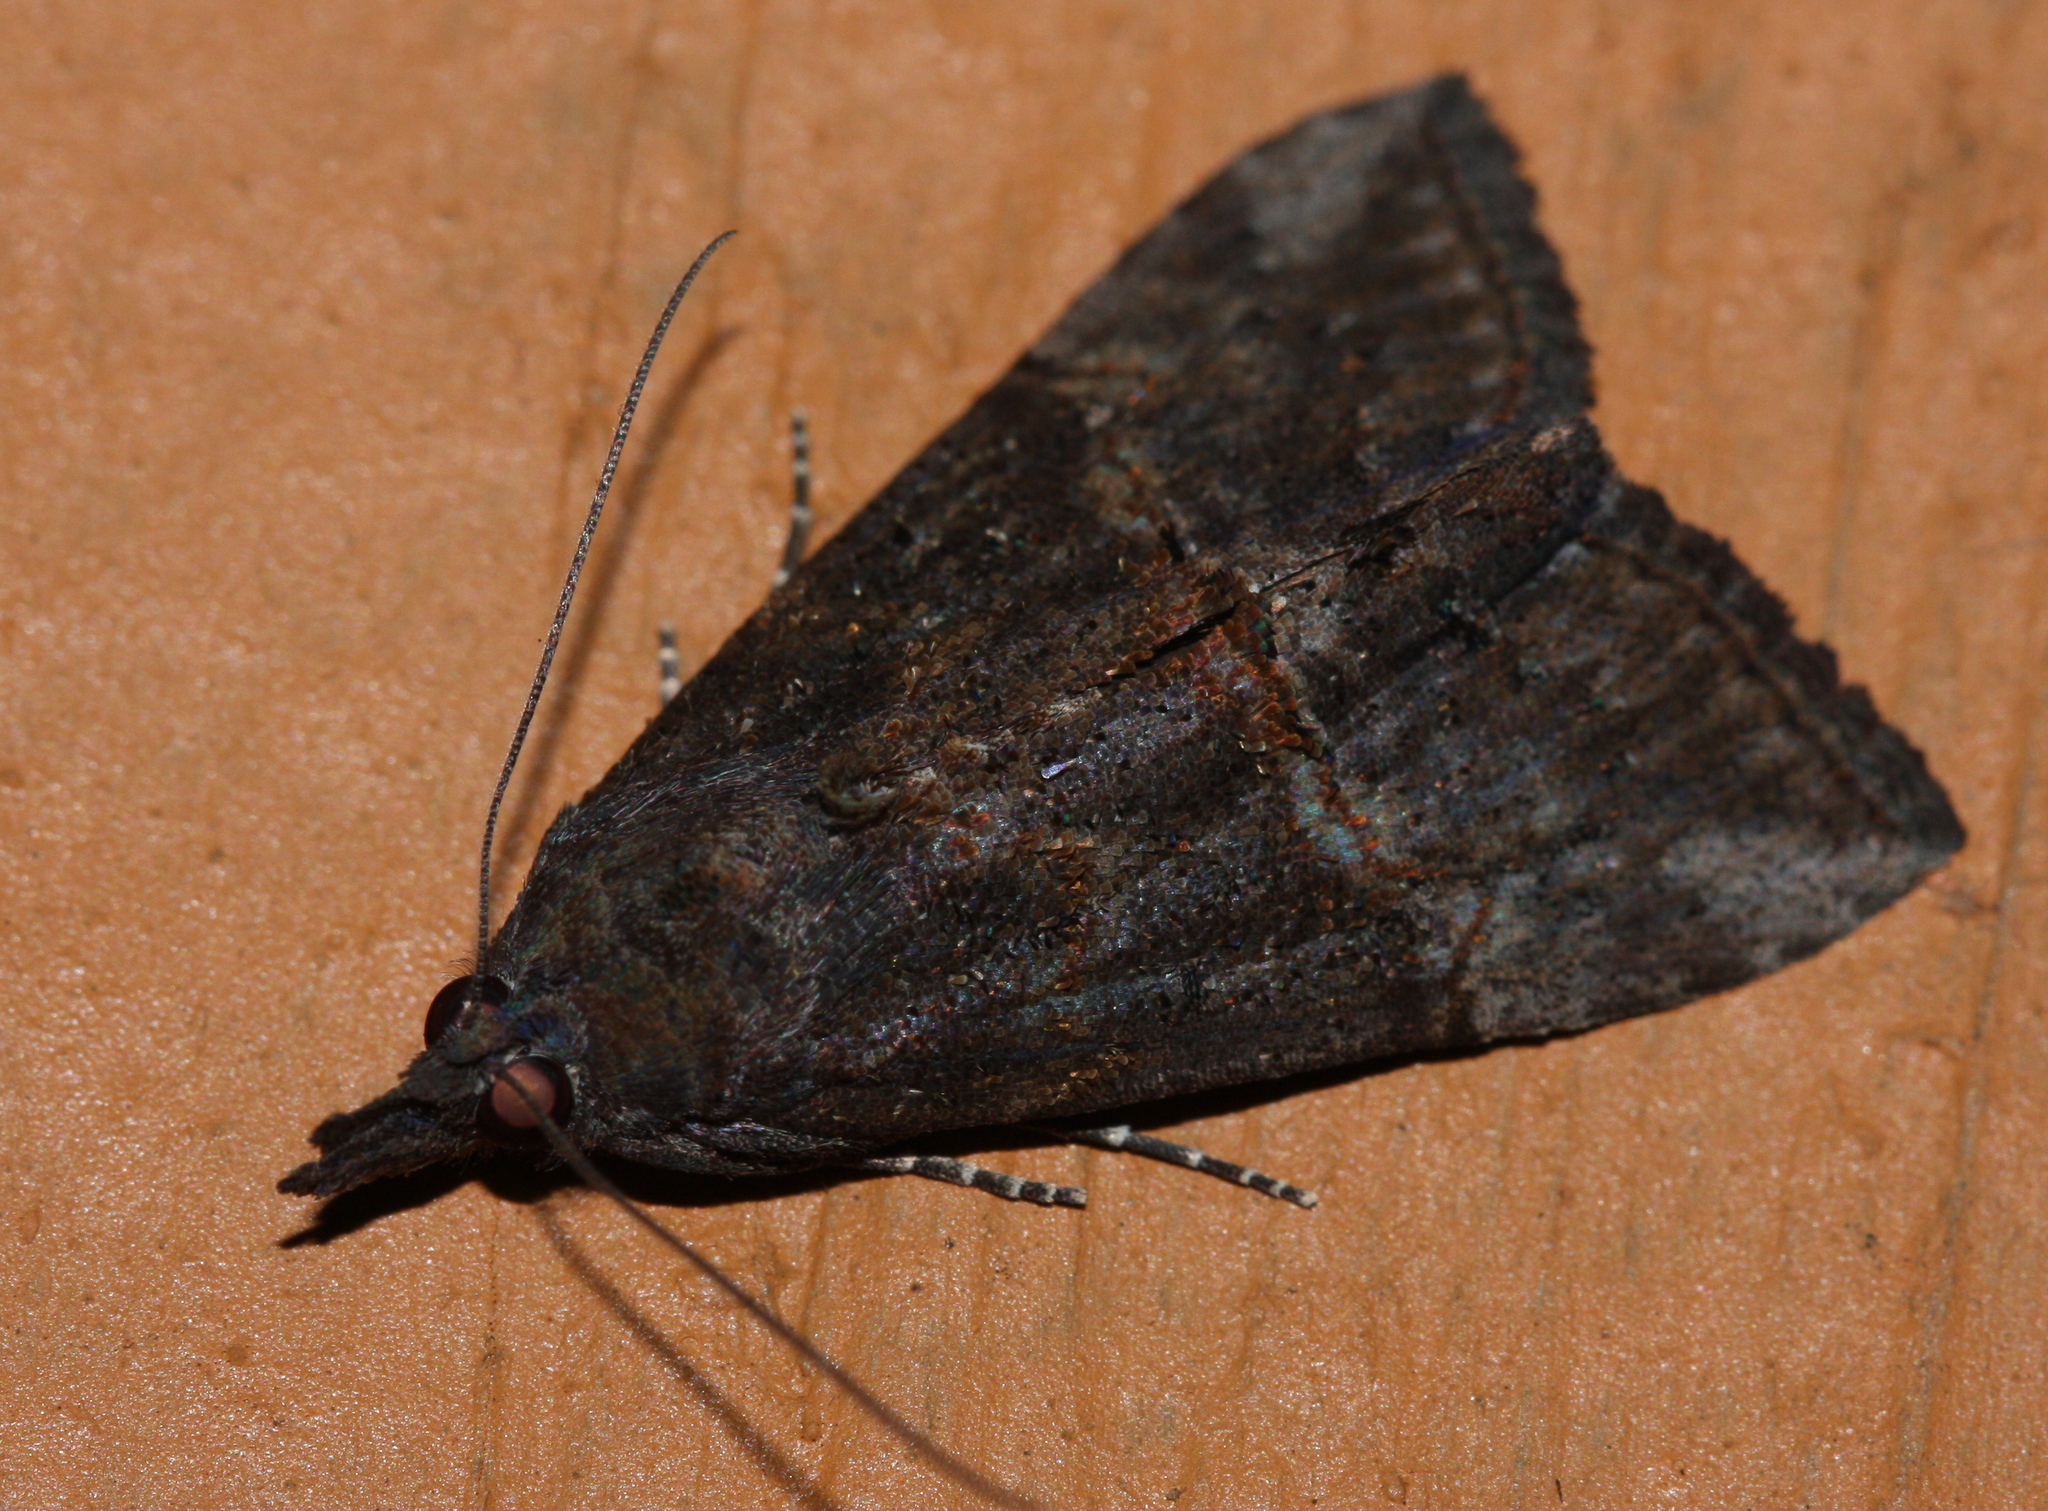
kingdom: Animalia
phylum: Arthropoda
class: Insecta
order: Lepidoptera
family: Erebidae
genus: Hypena
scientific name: Hypena scabra
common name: Green cloverworm
